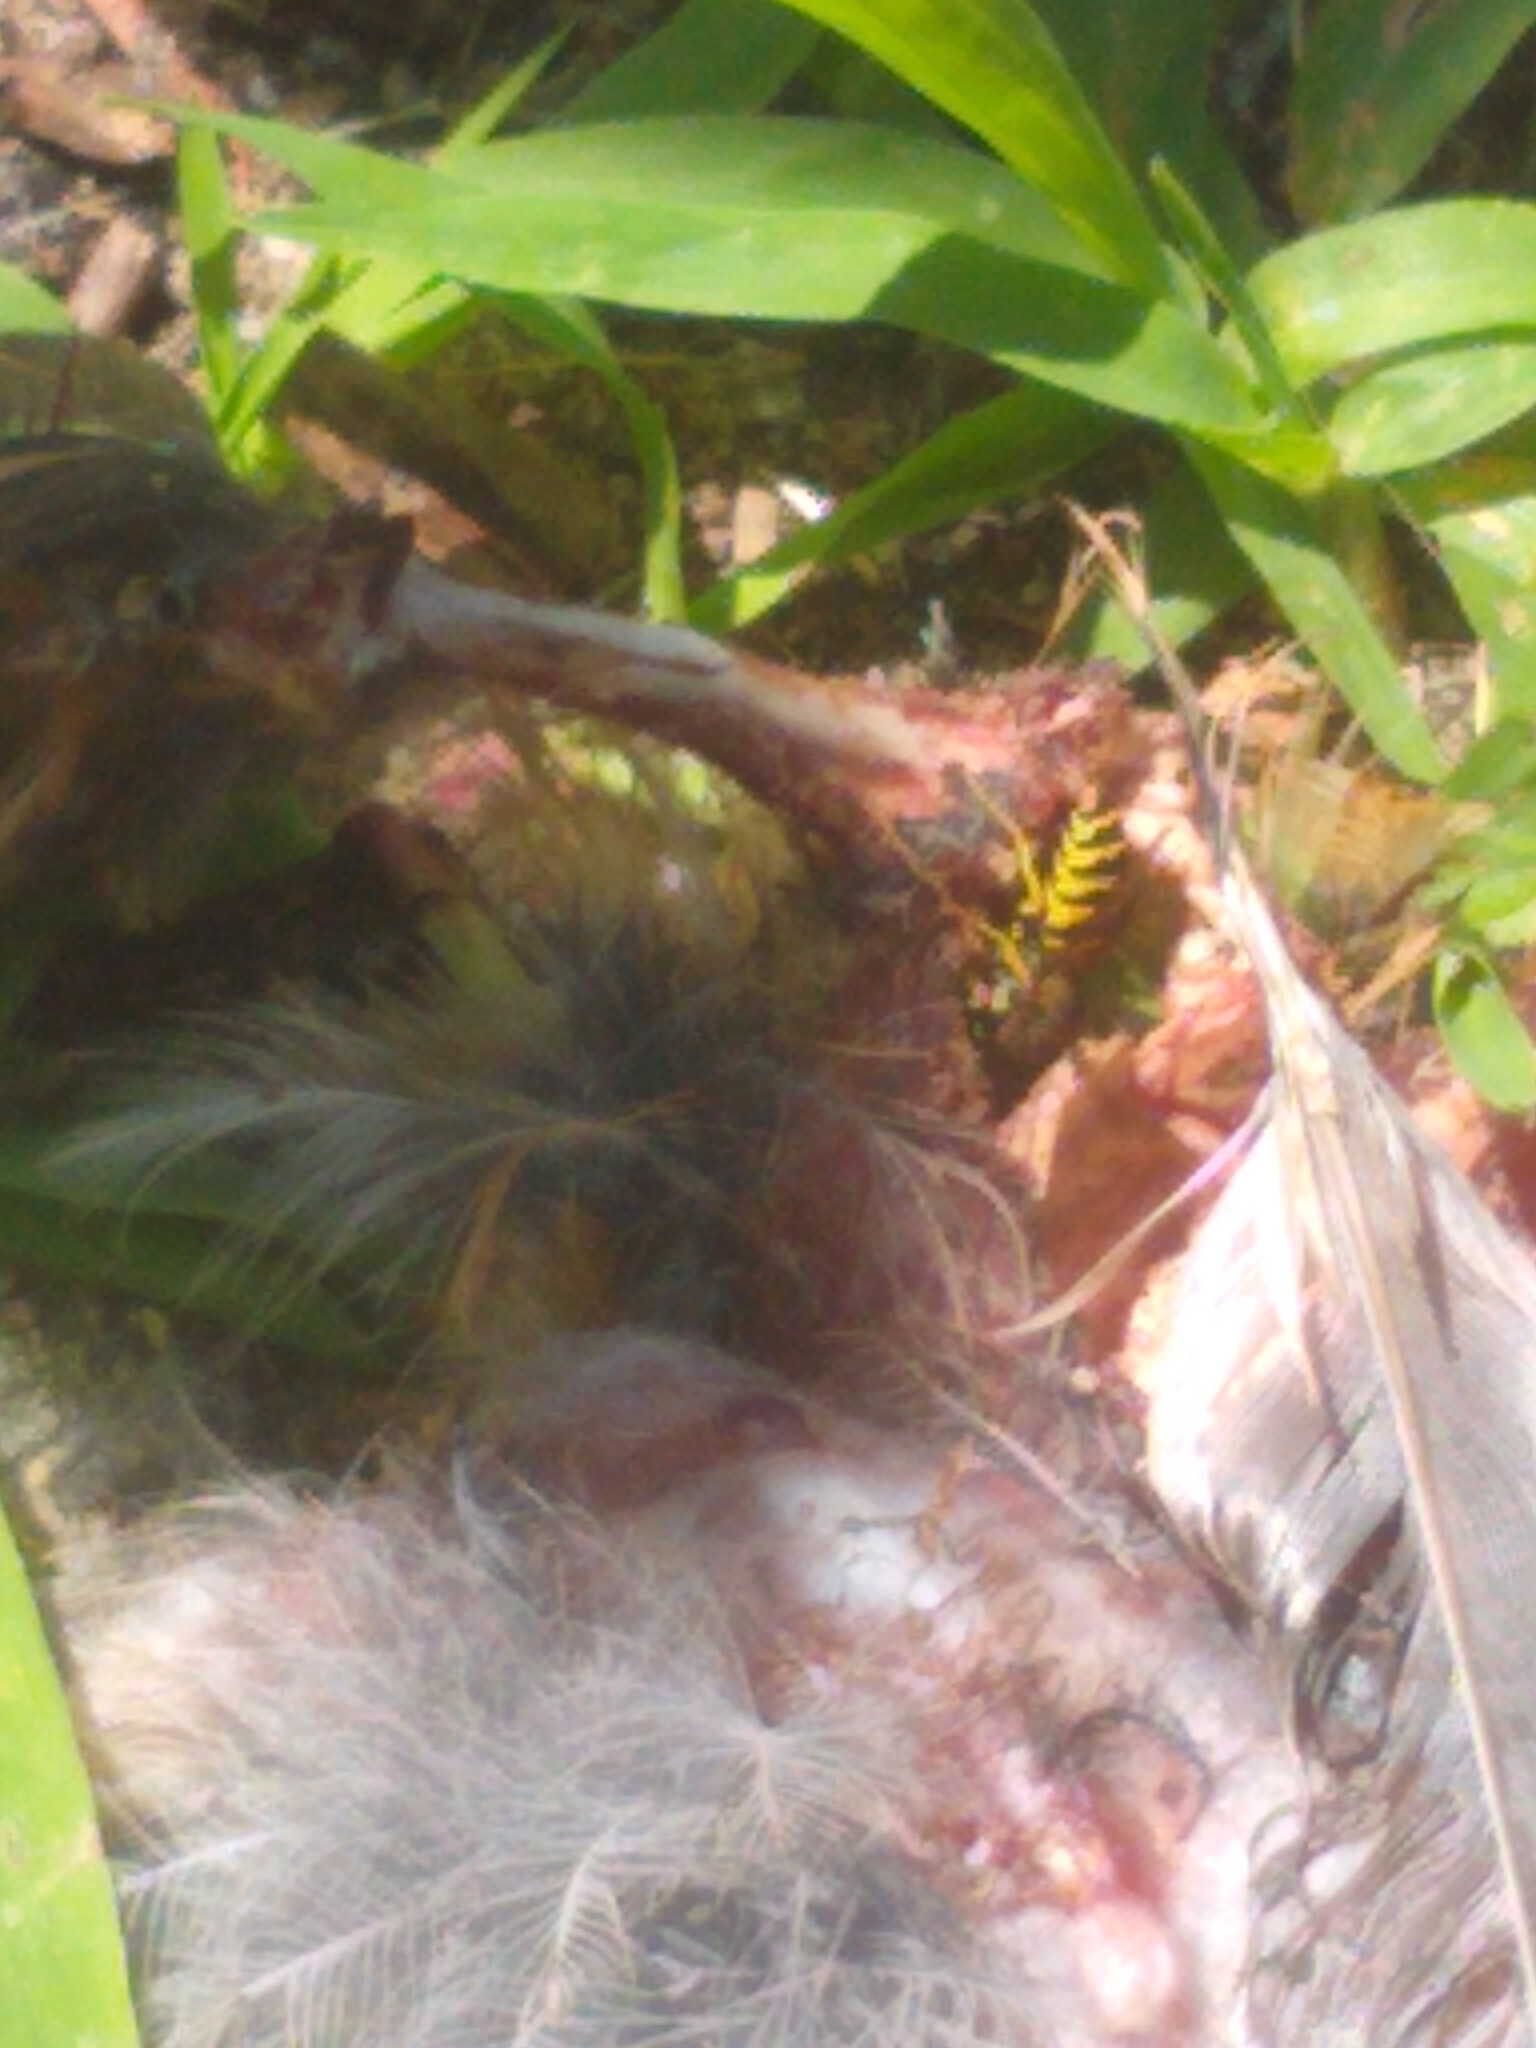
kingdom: Animalia
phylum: Arthropoda
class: Insecta
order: Hymenoptera
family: Vespidae
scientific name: Vespidae
